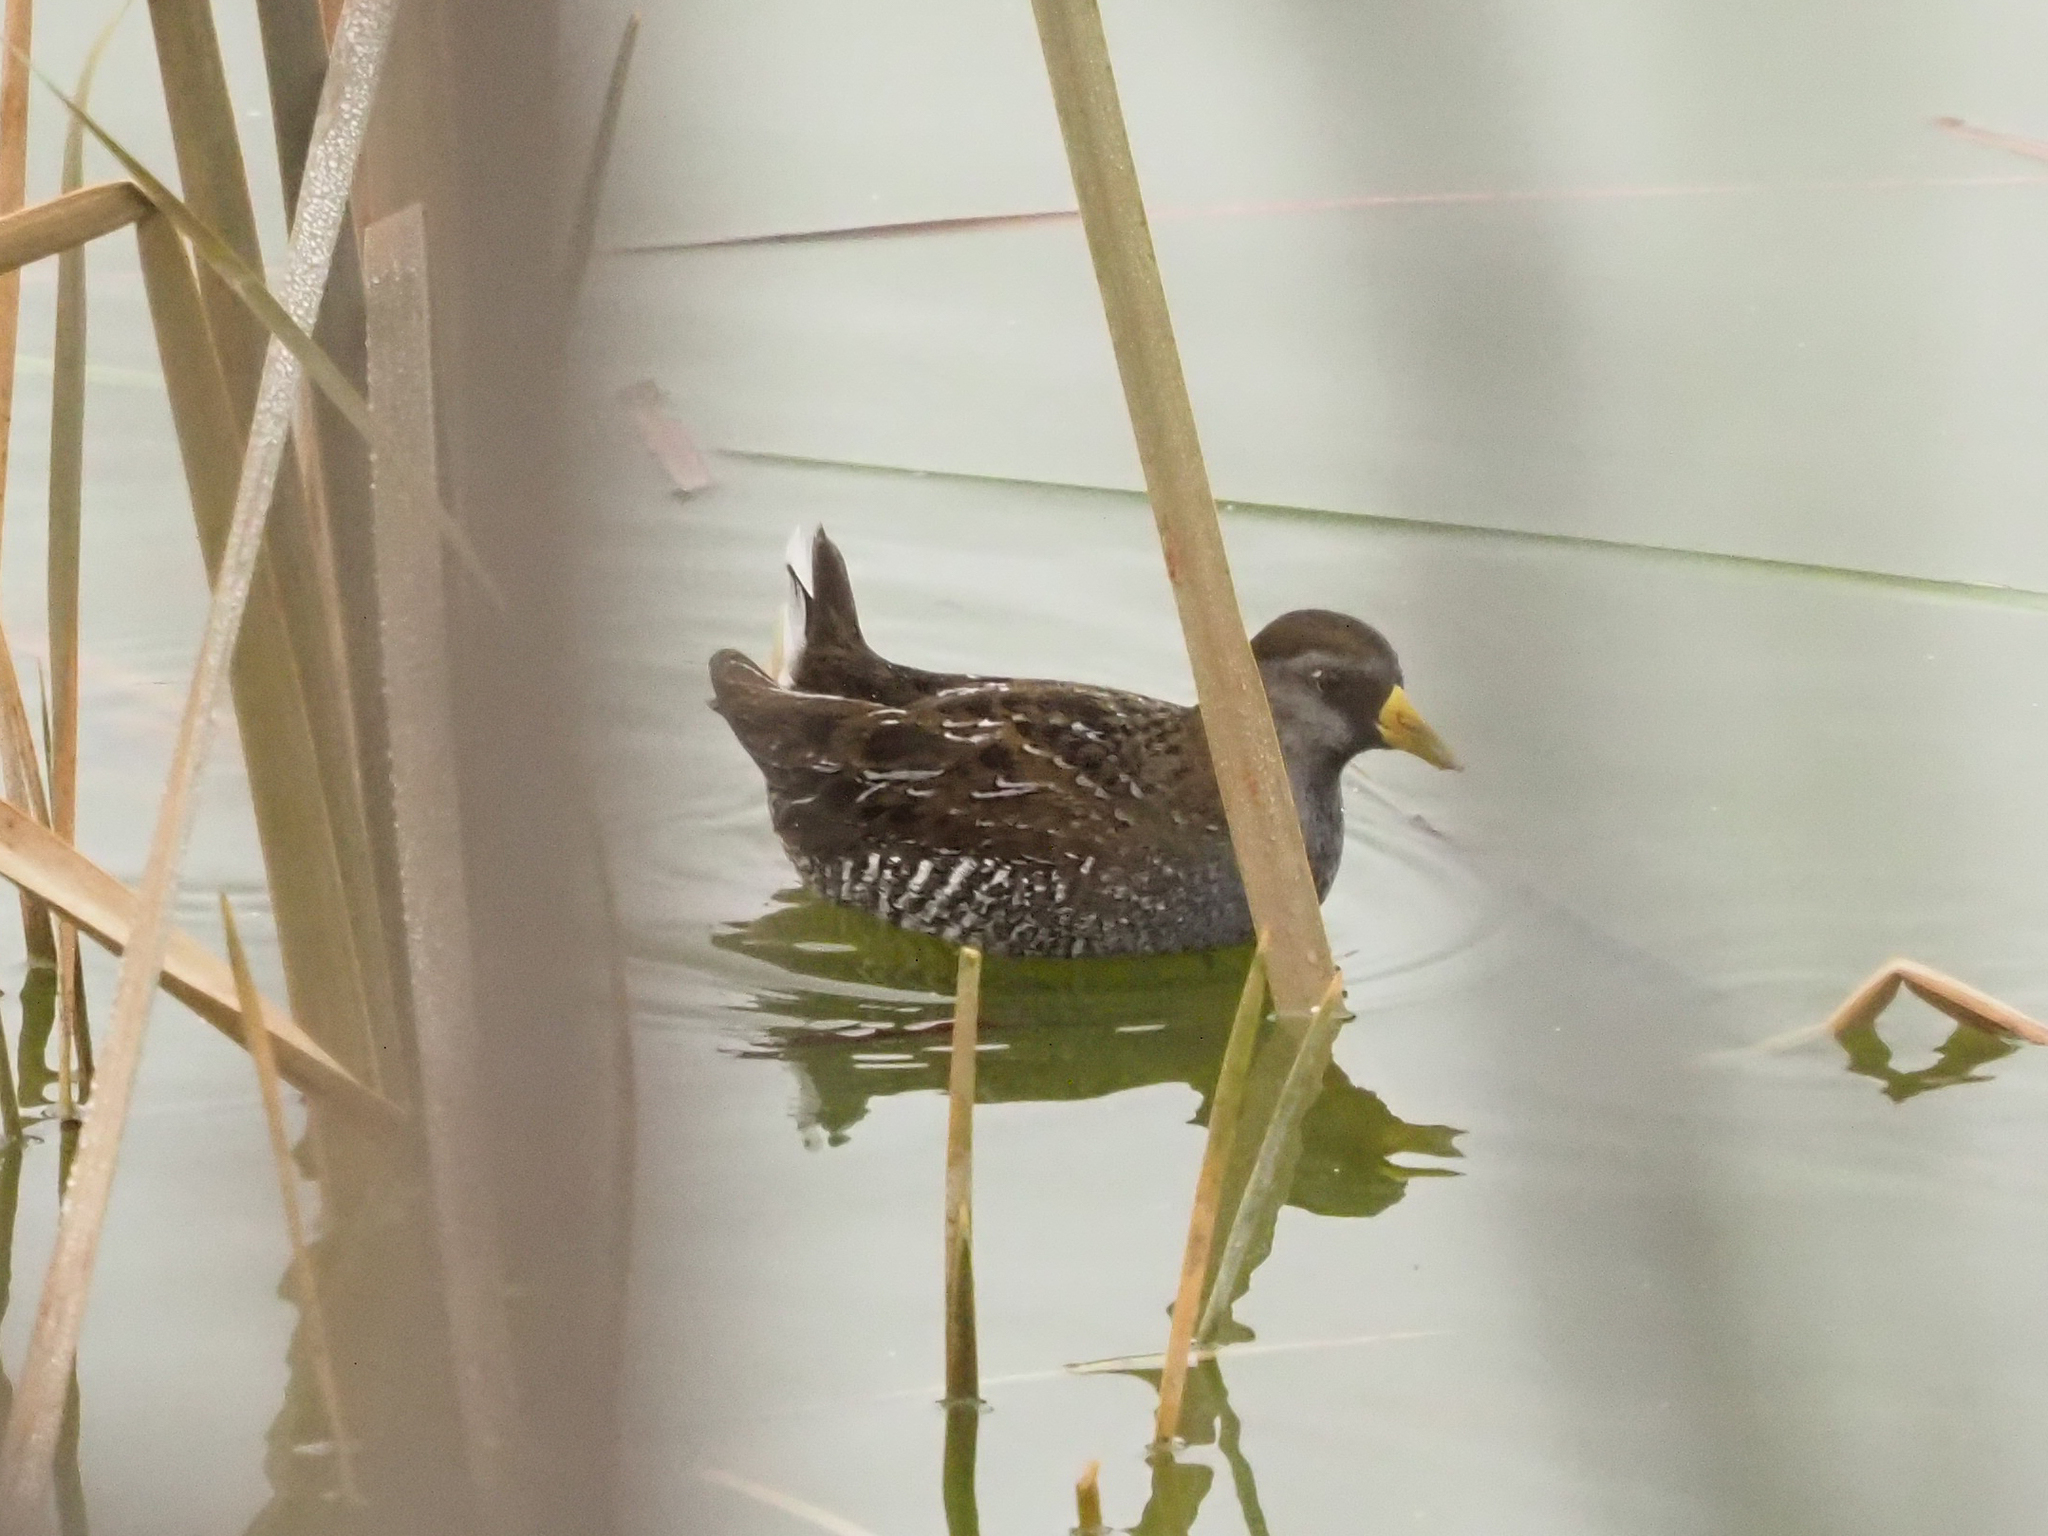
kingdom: Animalia
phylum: Chordata
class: Aves
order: Gruiformes
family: Rallidae
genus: Porzana
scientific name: Porzana carolina
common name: Sora
